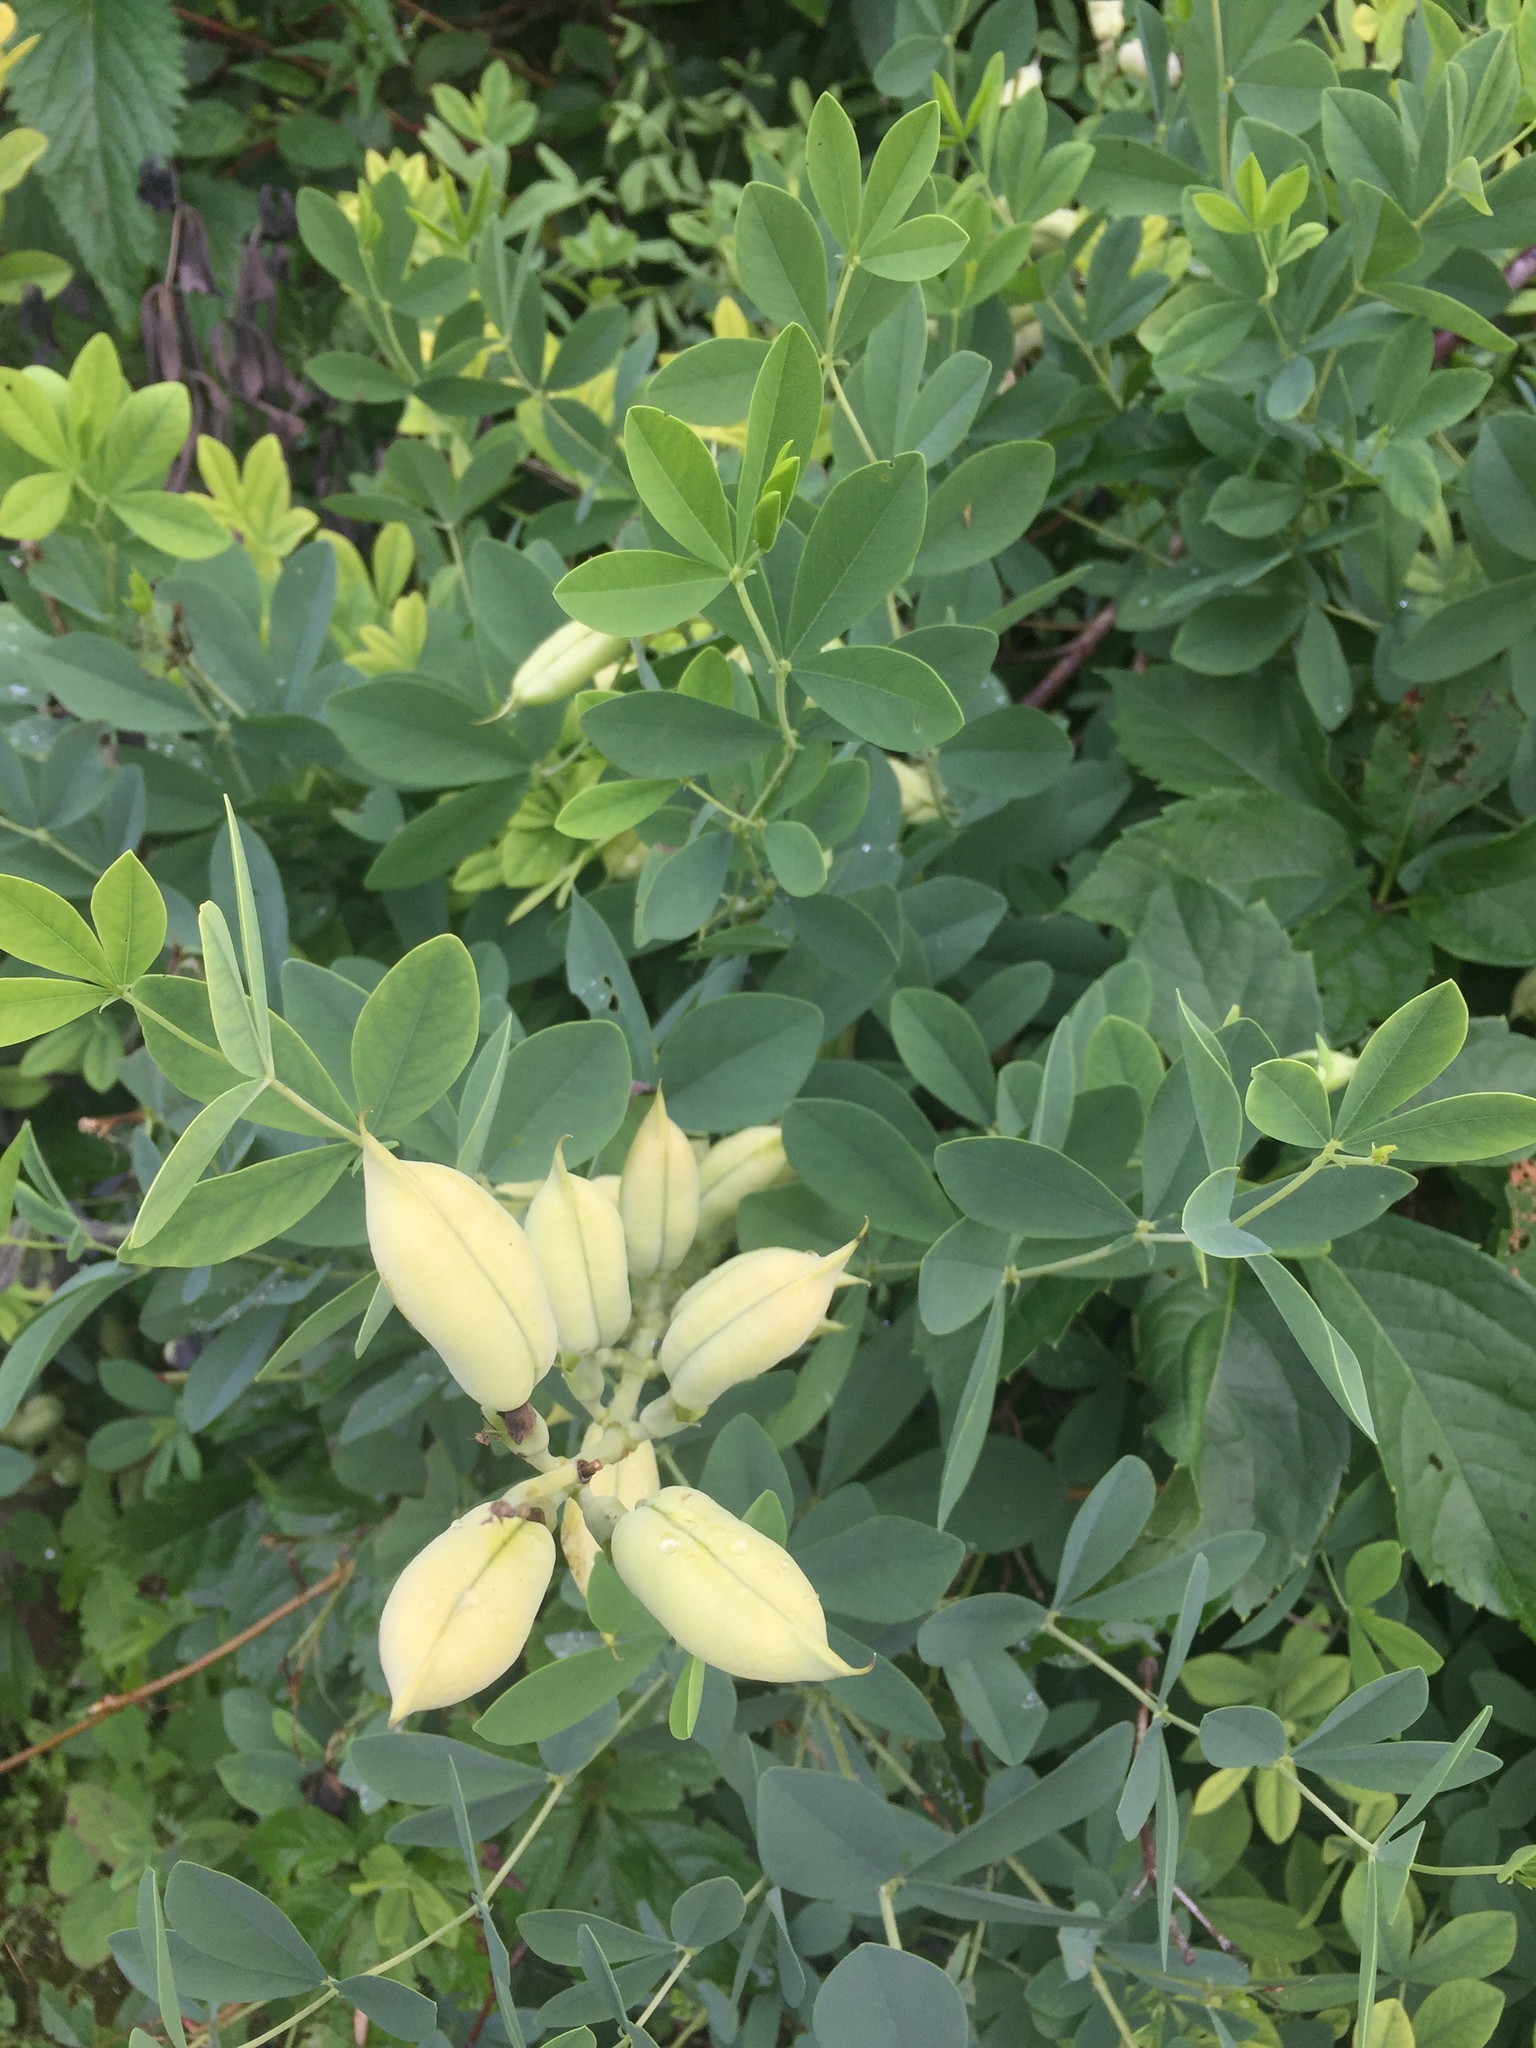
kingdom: Plantae
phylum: Tracheophyta
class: Magnoliopsida
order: Fabales
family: Fabaceae
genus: Baptisia
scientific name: Baptisia australis
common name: Blue false indigo
